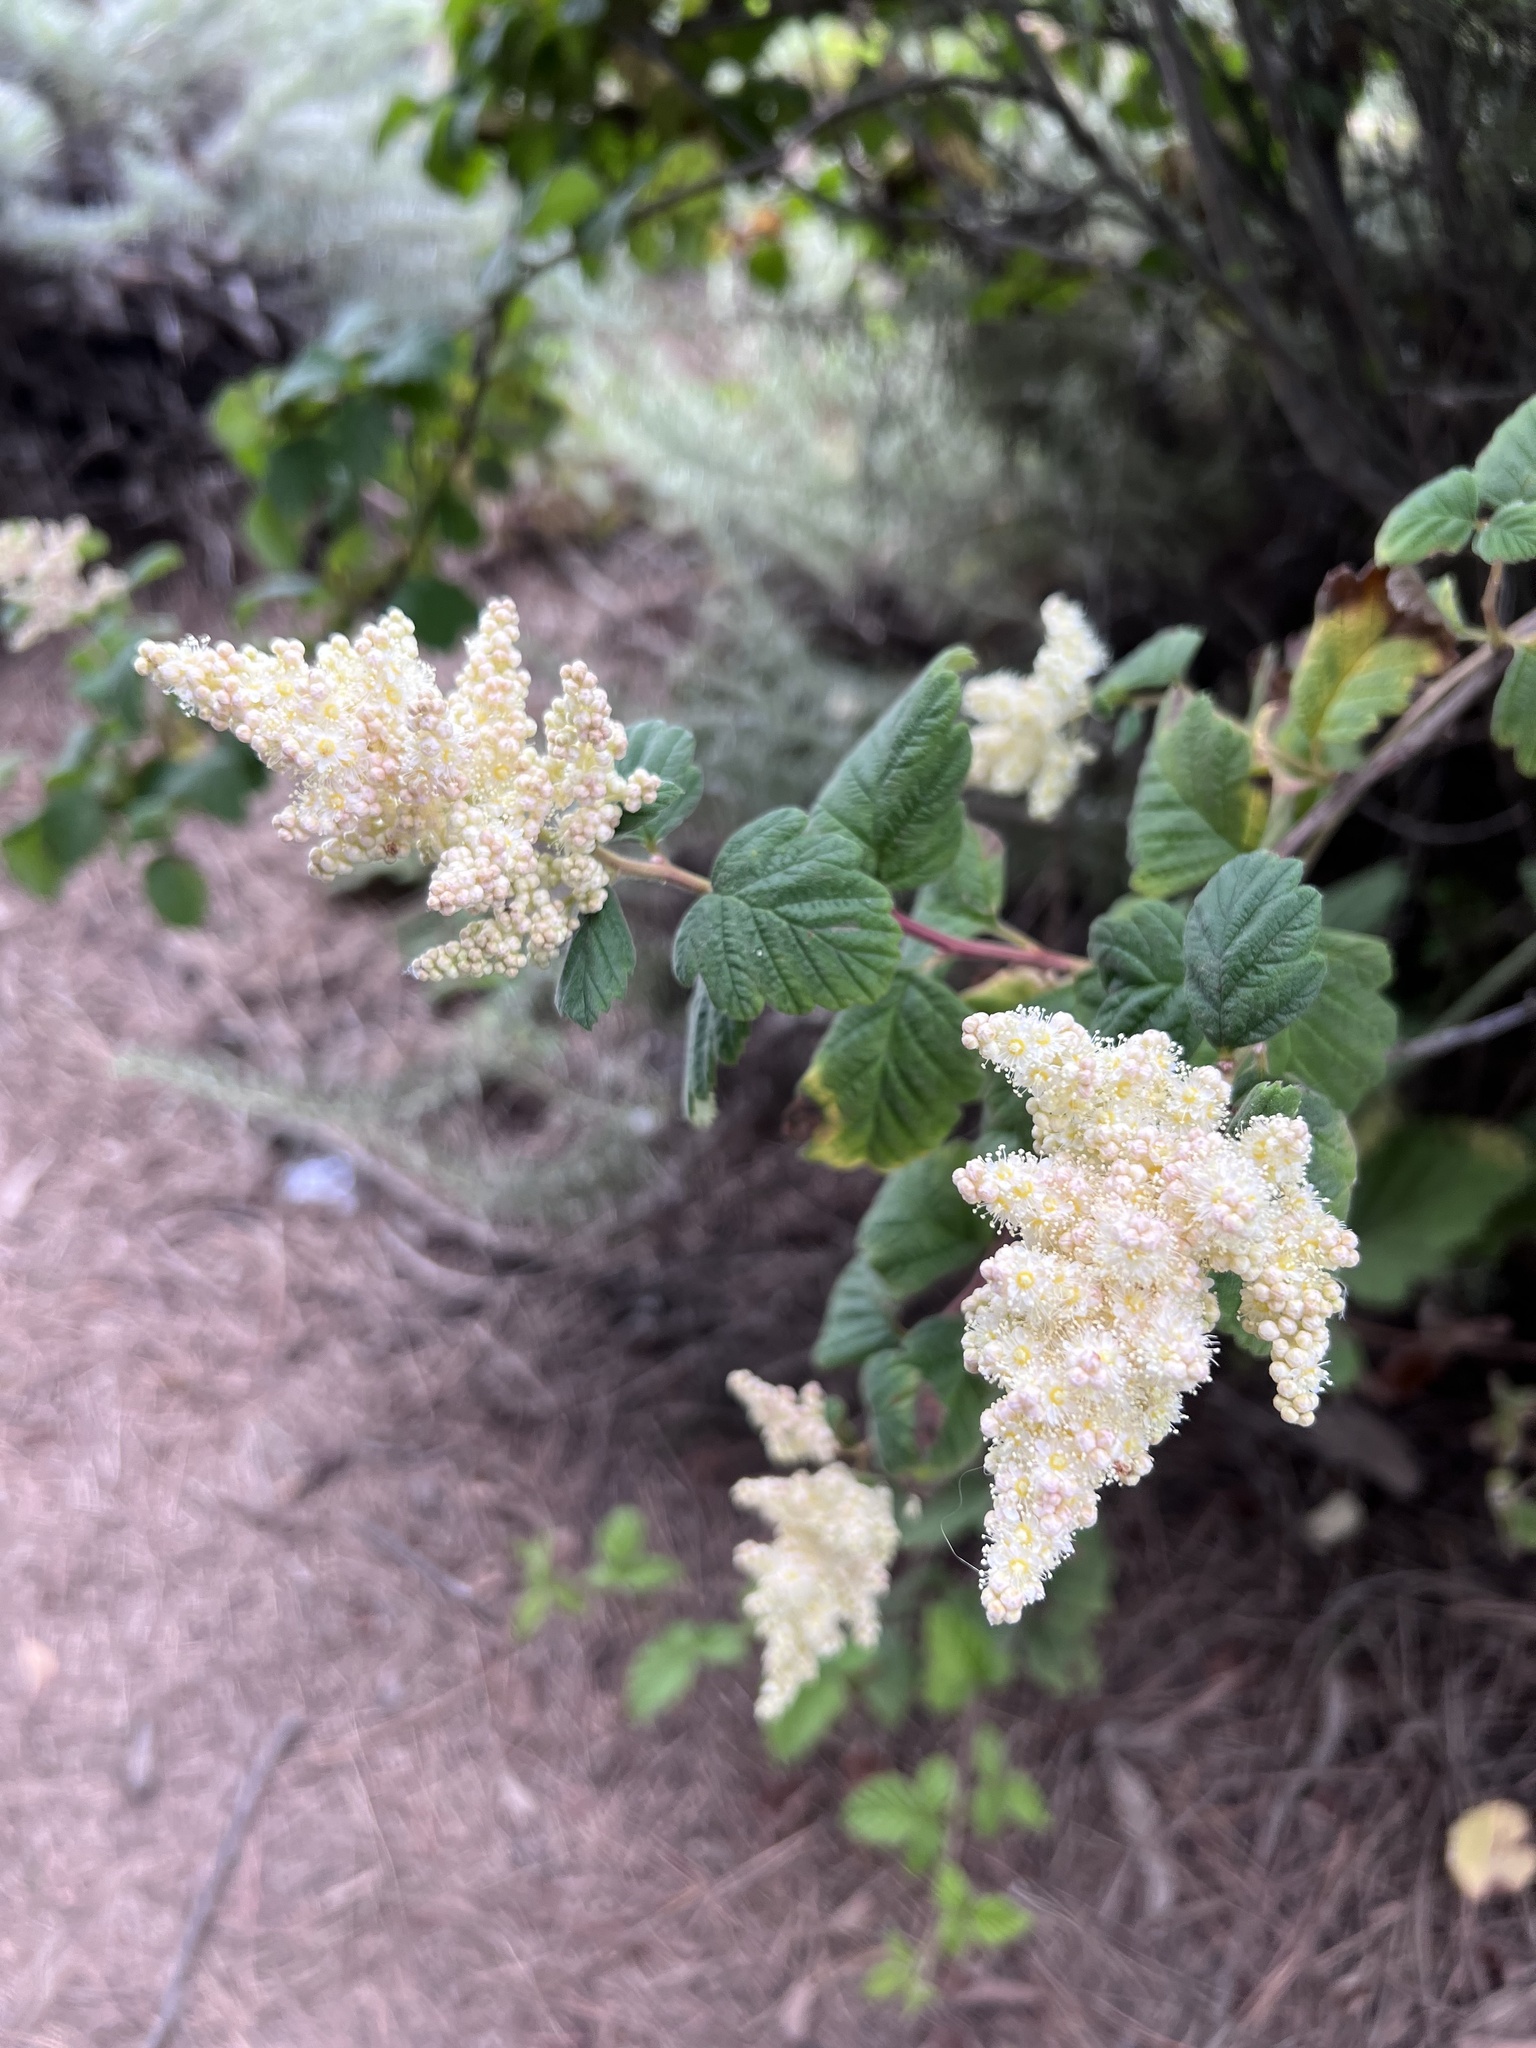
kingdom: Plantae
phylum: Tracheophyta
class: Magnoliopsida
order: Rosales
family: Rosaceae
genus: Holodiscus
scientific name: Holodiscus discolor
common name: Oceanspray
